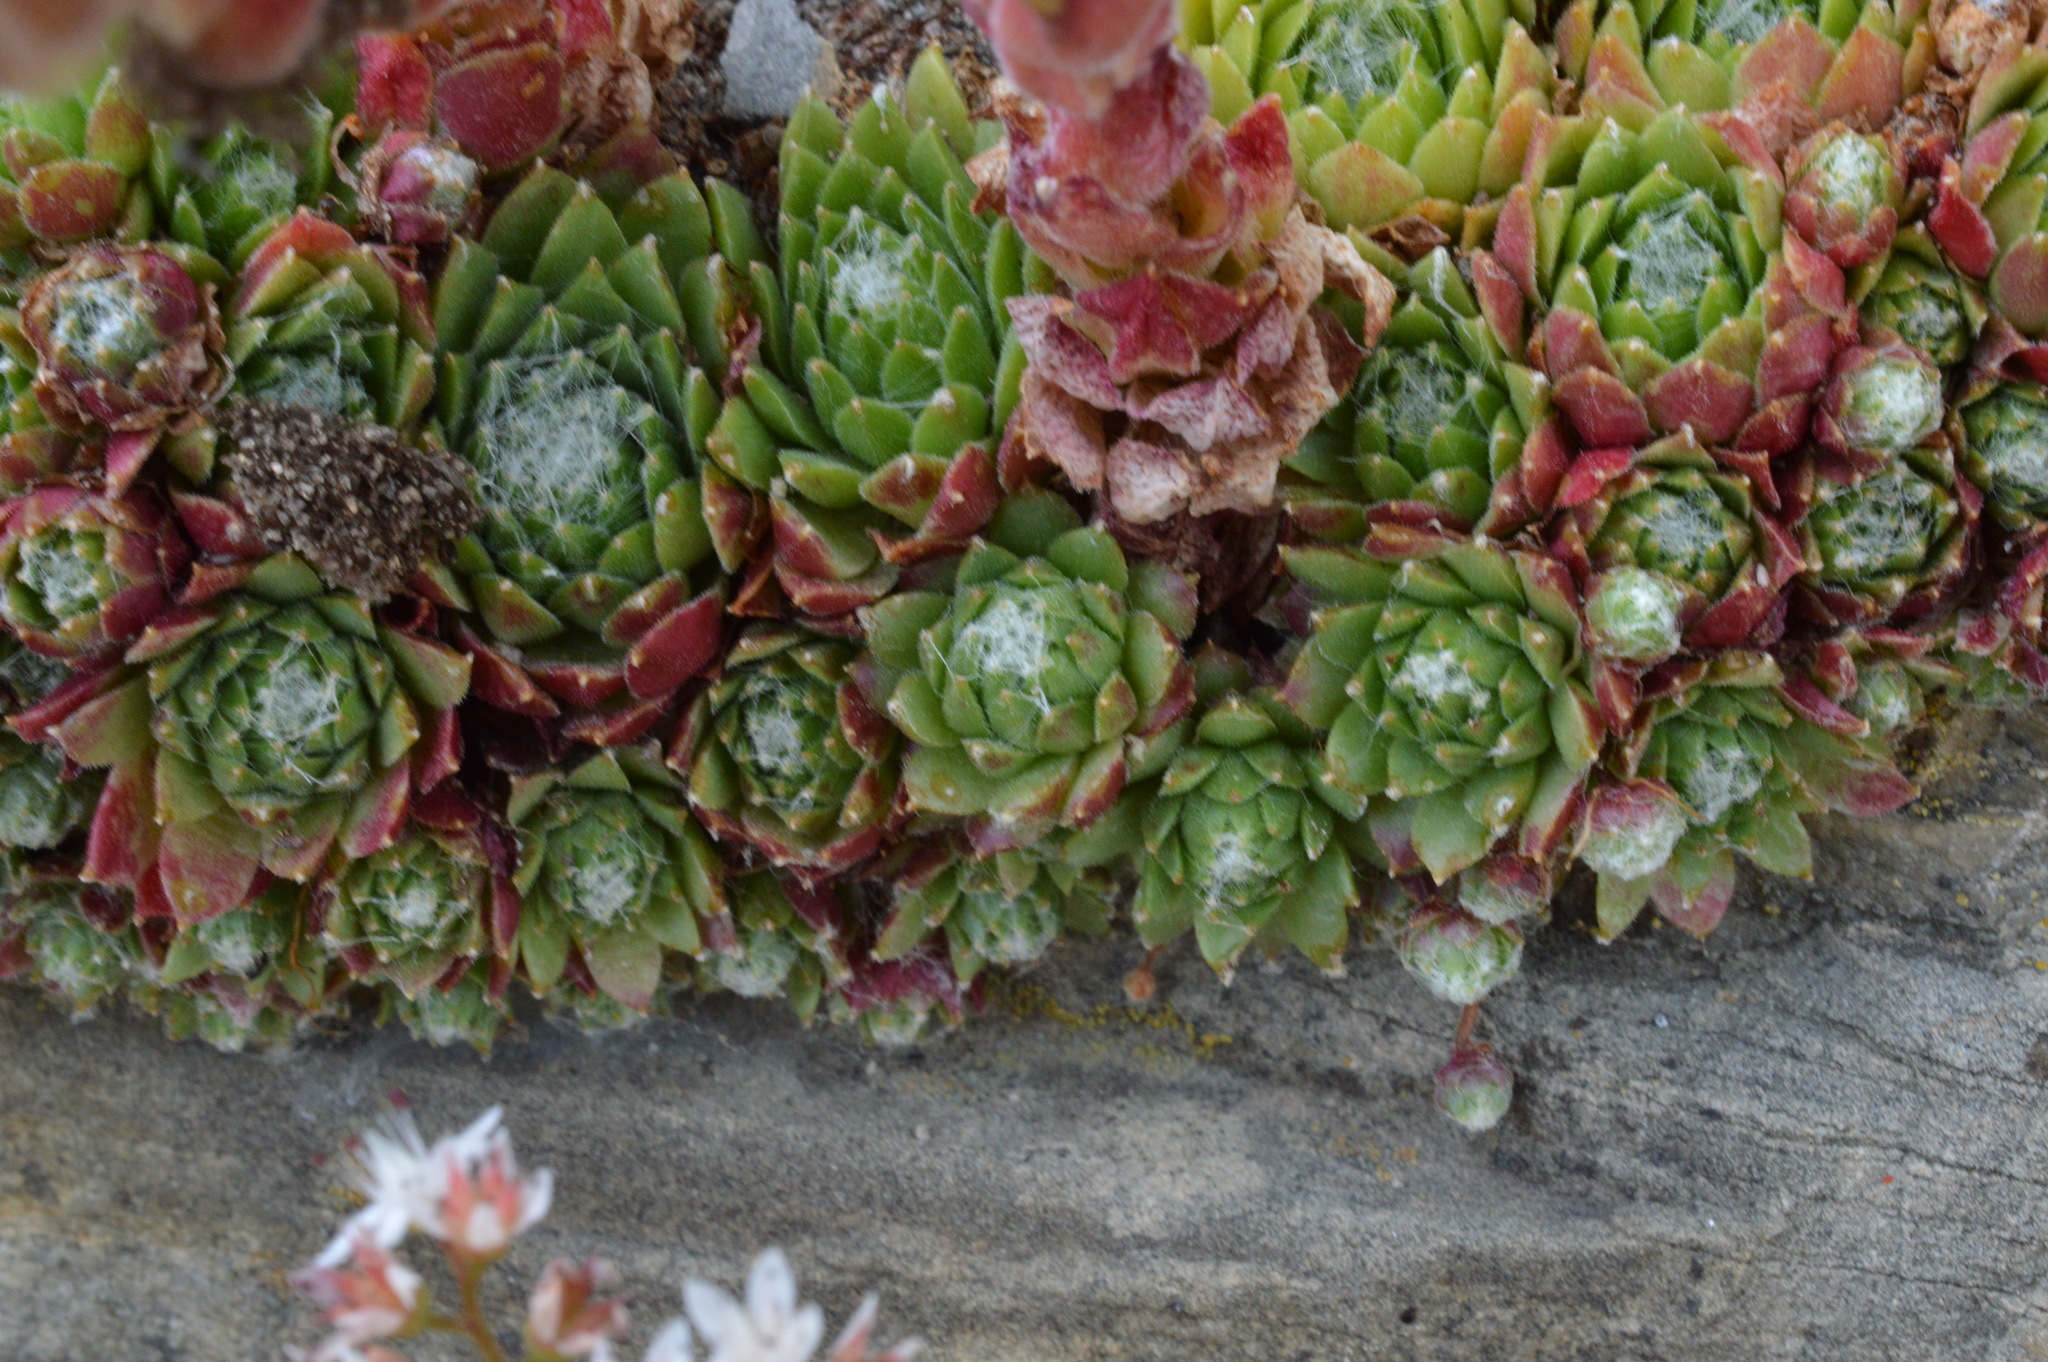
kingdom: Plantae
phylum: Tracheophyta
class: Magnoliopsida
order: Saxifragales
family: Crassulaceae
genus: Sempervivum
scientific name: Sempervivum arachnoideum
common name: Cobweb house-leek
